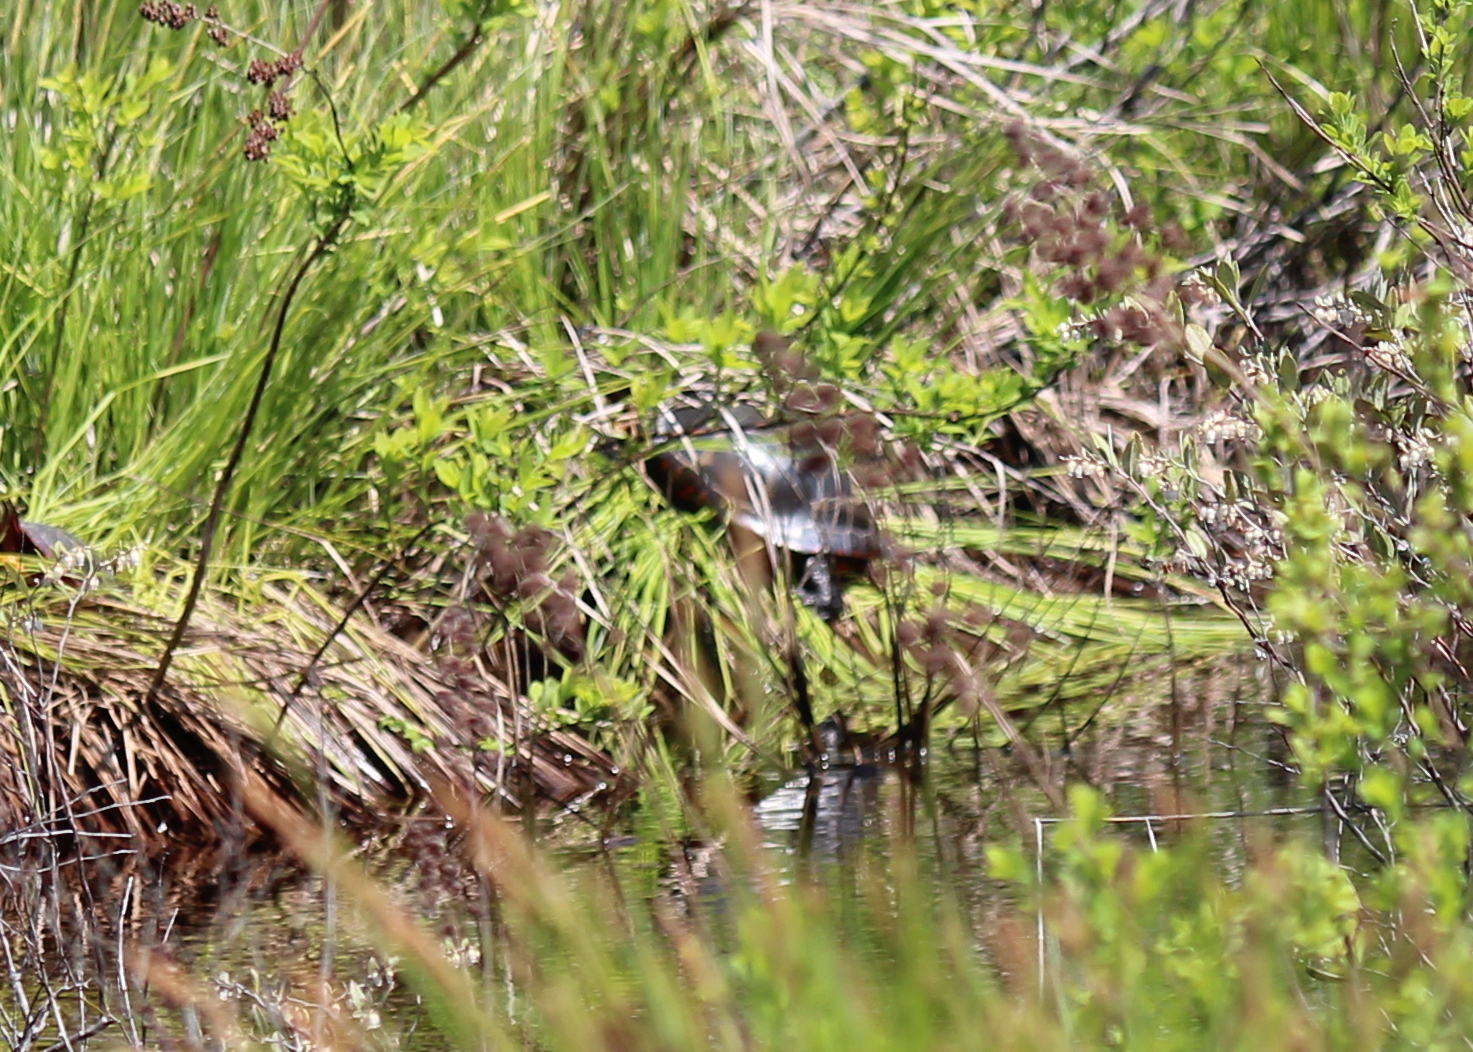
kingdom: Animalia
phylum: Chordata
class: Testudines
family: Emydidae
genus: Chrysemys
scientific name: Chrysemys picta
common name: Painted turtle
